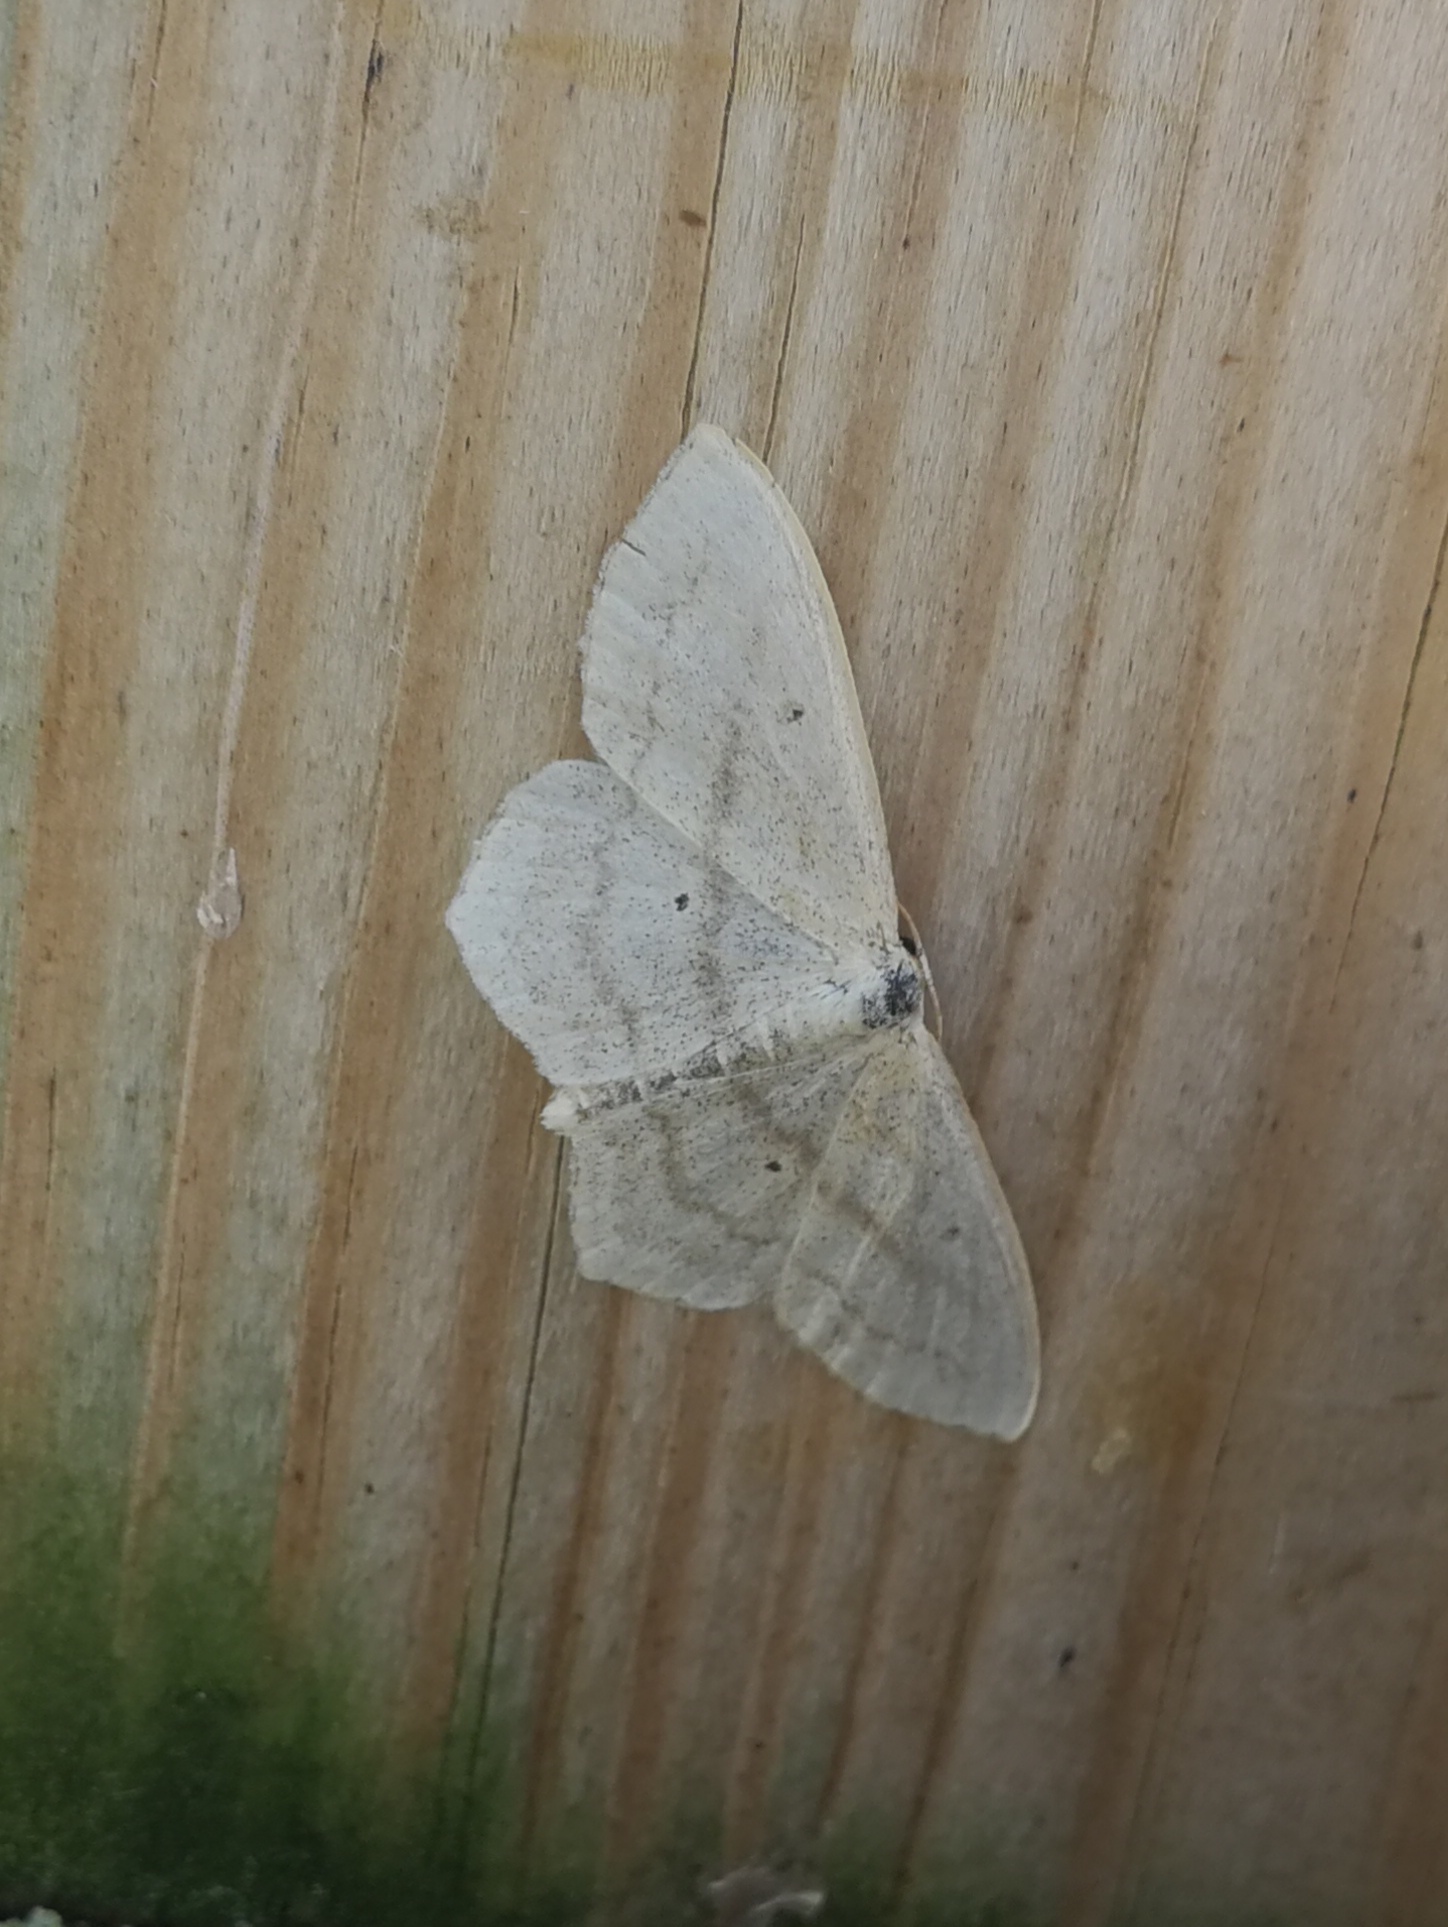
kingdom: Animalia
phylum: Arthropoda
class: Insecta
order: Lepidoptera
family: Geometridae
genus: Scopula
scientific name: Scopula nigropunctata
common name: Sub-angled wave
